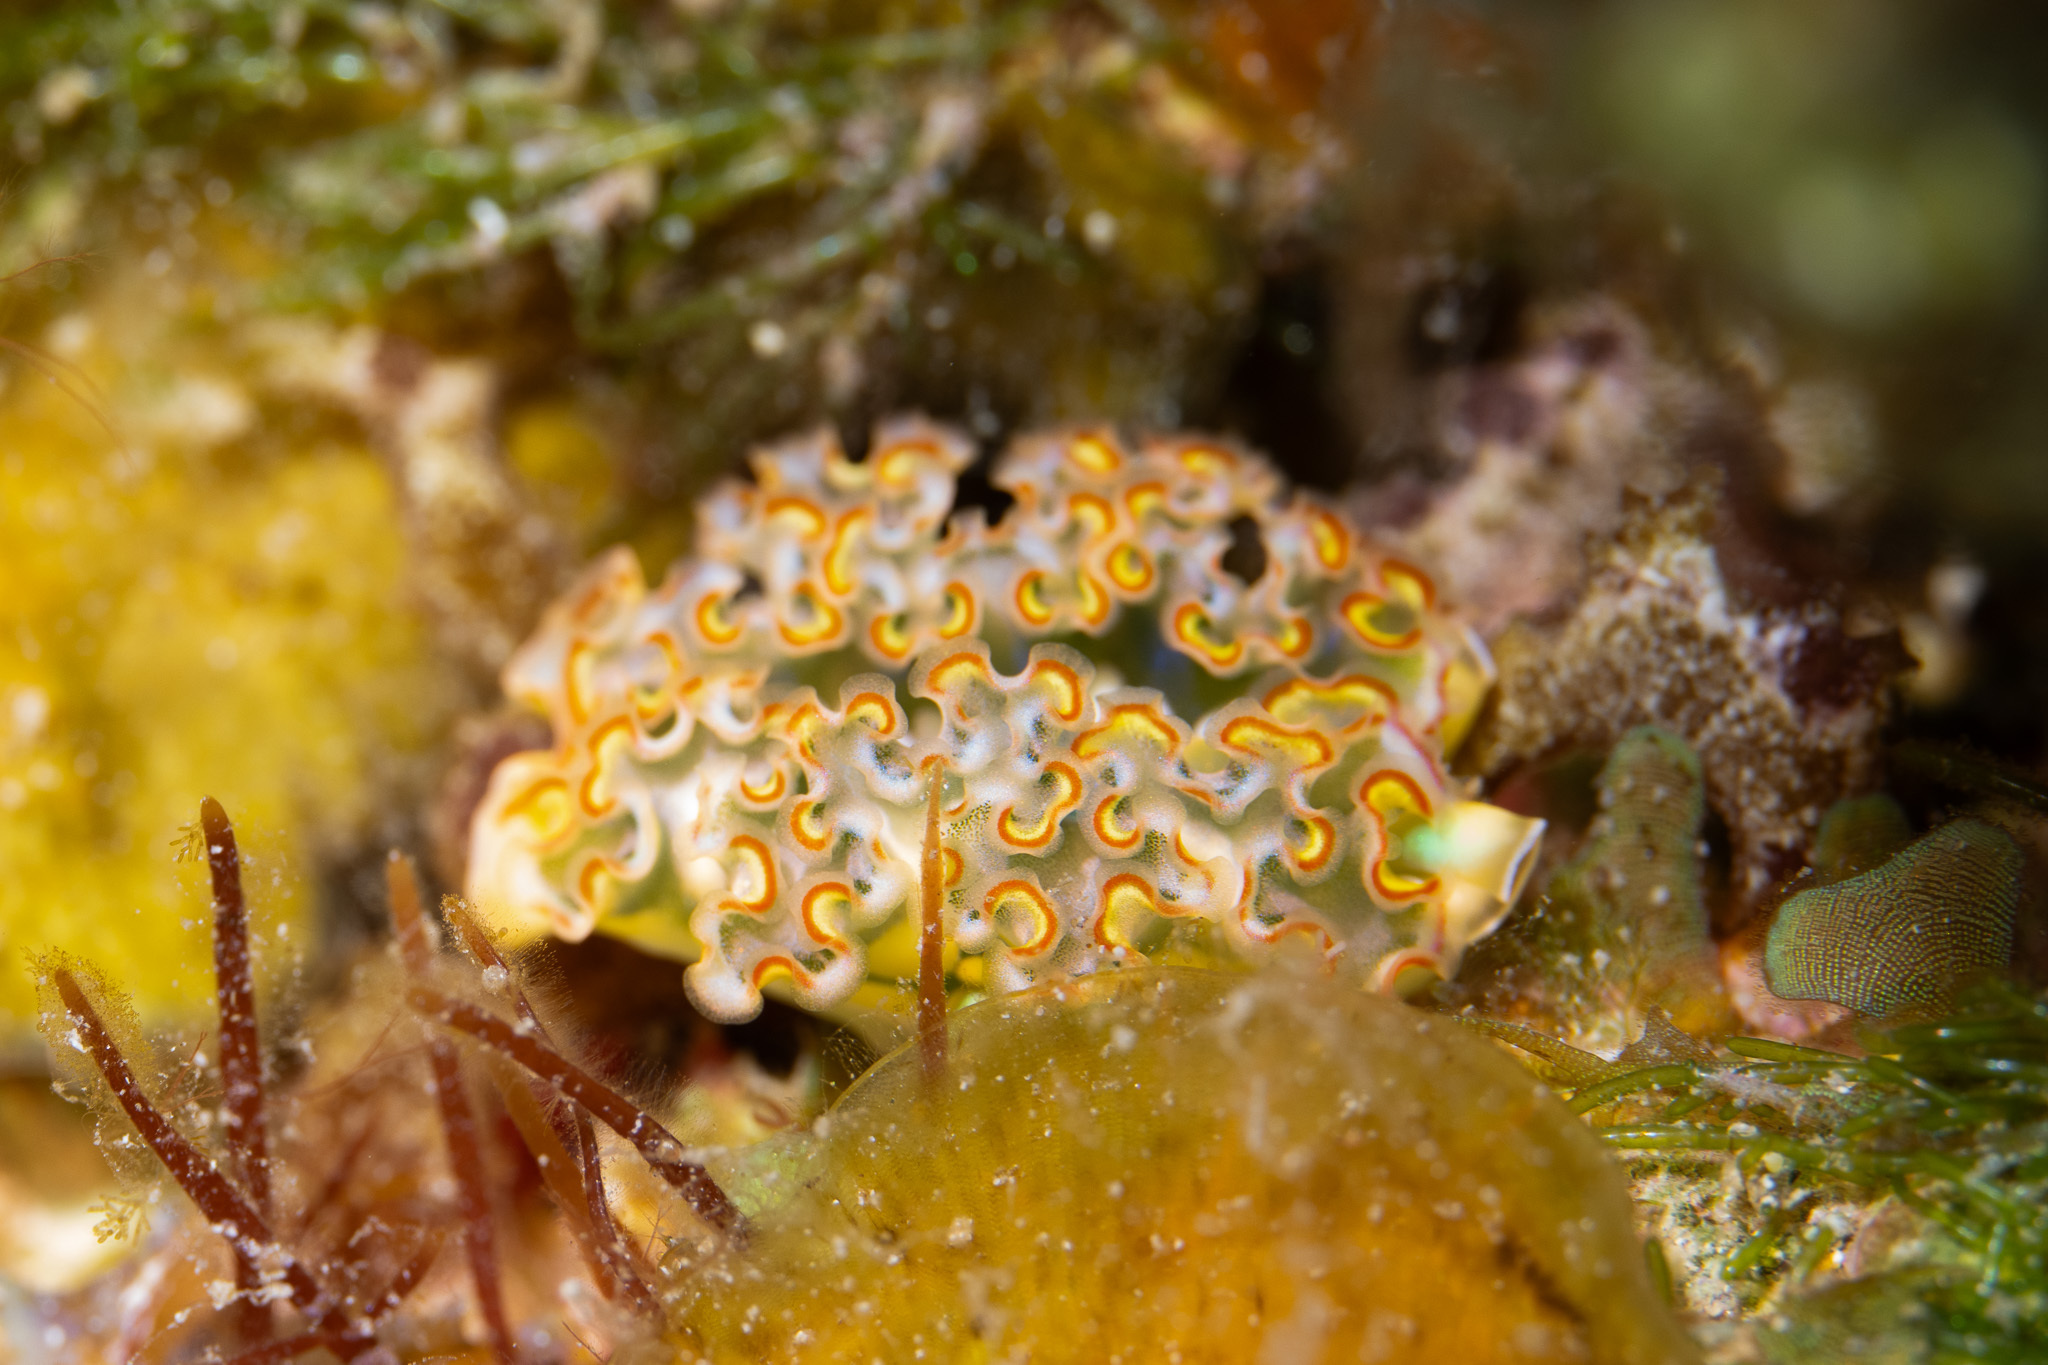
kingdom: Animalia
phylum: Mollusca
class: Gastropoda
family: Plakobranchidae
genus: Elysia
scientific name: Elysia crispata
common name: Lettuce slug
